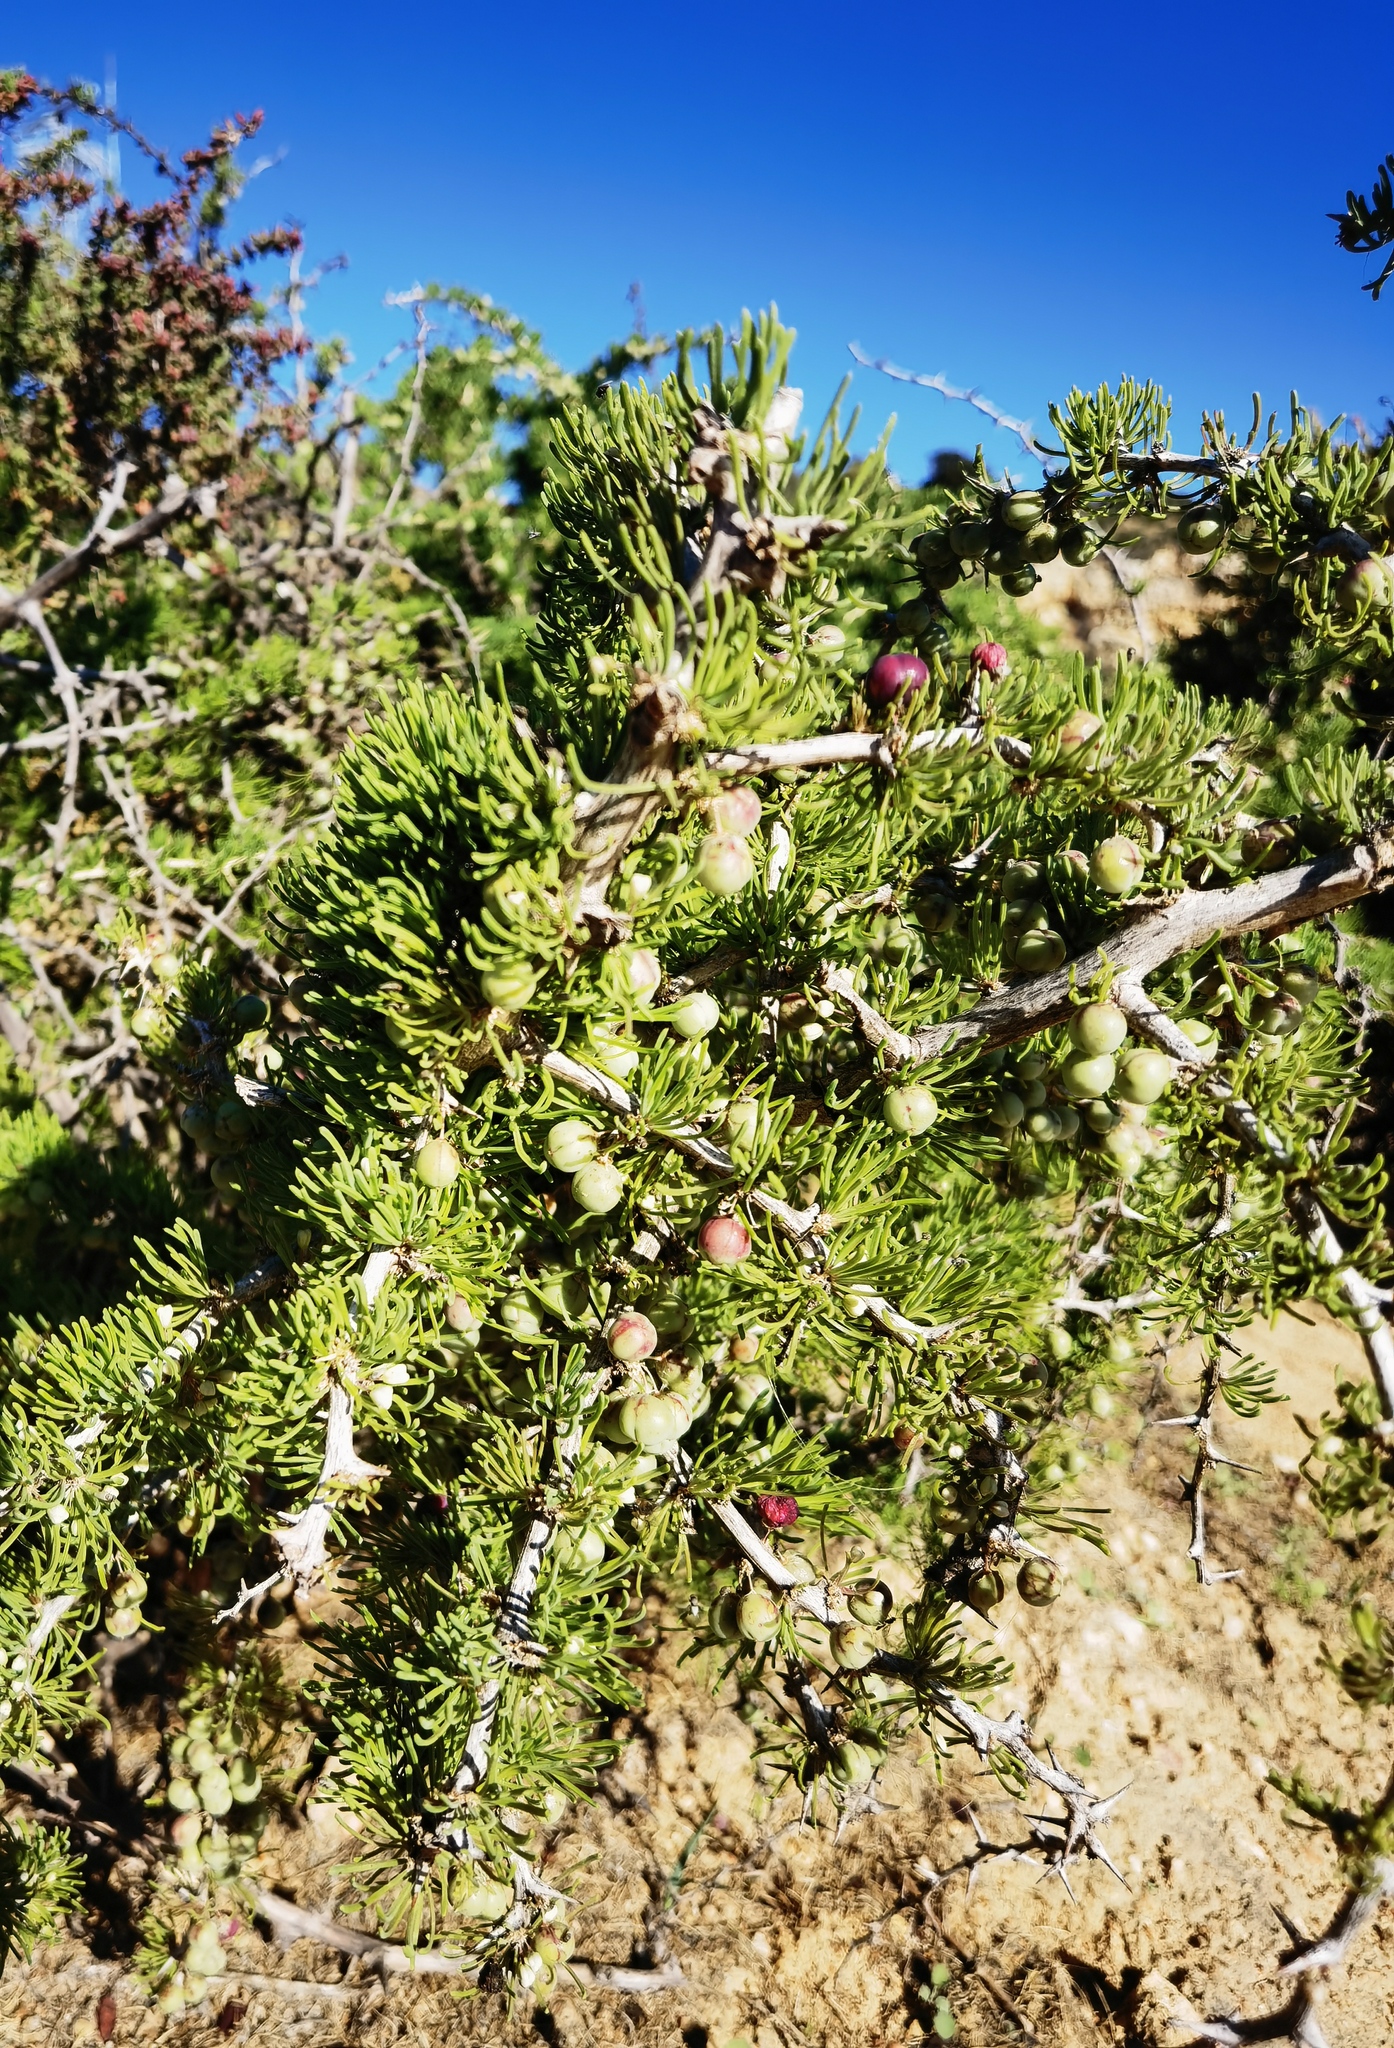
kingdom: Plantae
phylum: Tracheophyta
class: Liliopsida
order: Asparagales
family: Asparagaceae
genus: Asparagus
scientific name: Asparagus albus
